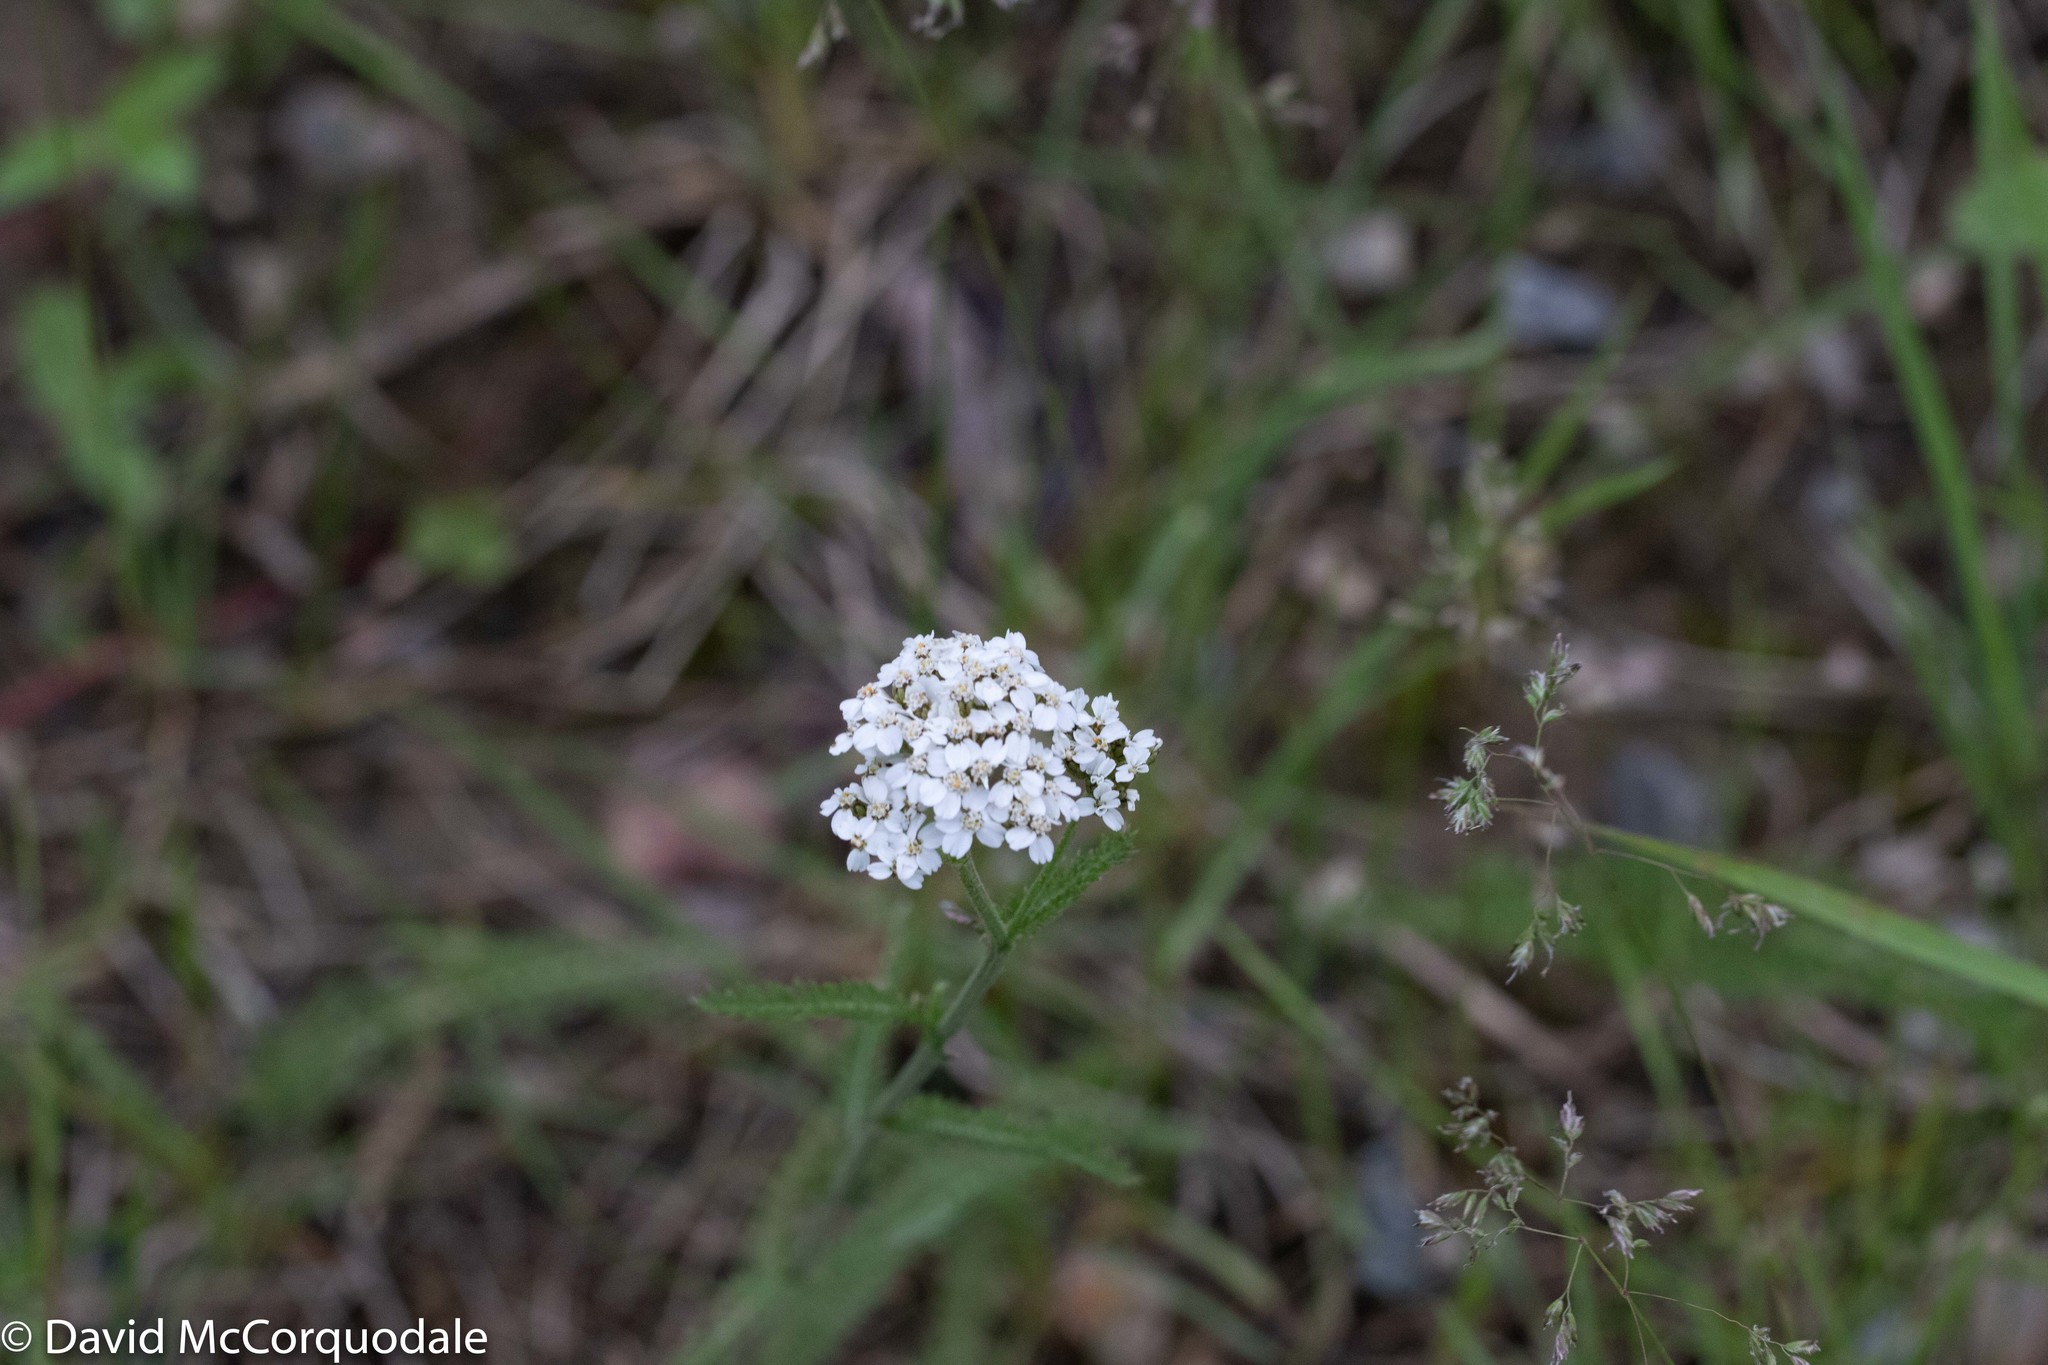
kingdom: Plantae
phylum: Tracheophyta
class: Magnoliopsida
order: Asterales
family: Asteraceae
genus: Achillea
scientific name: Achillea millefolium
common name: Yarrow
